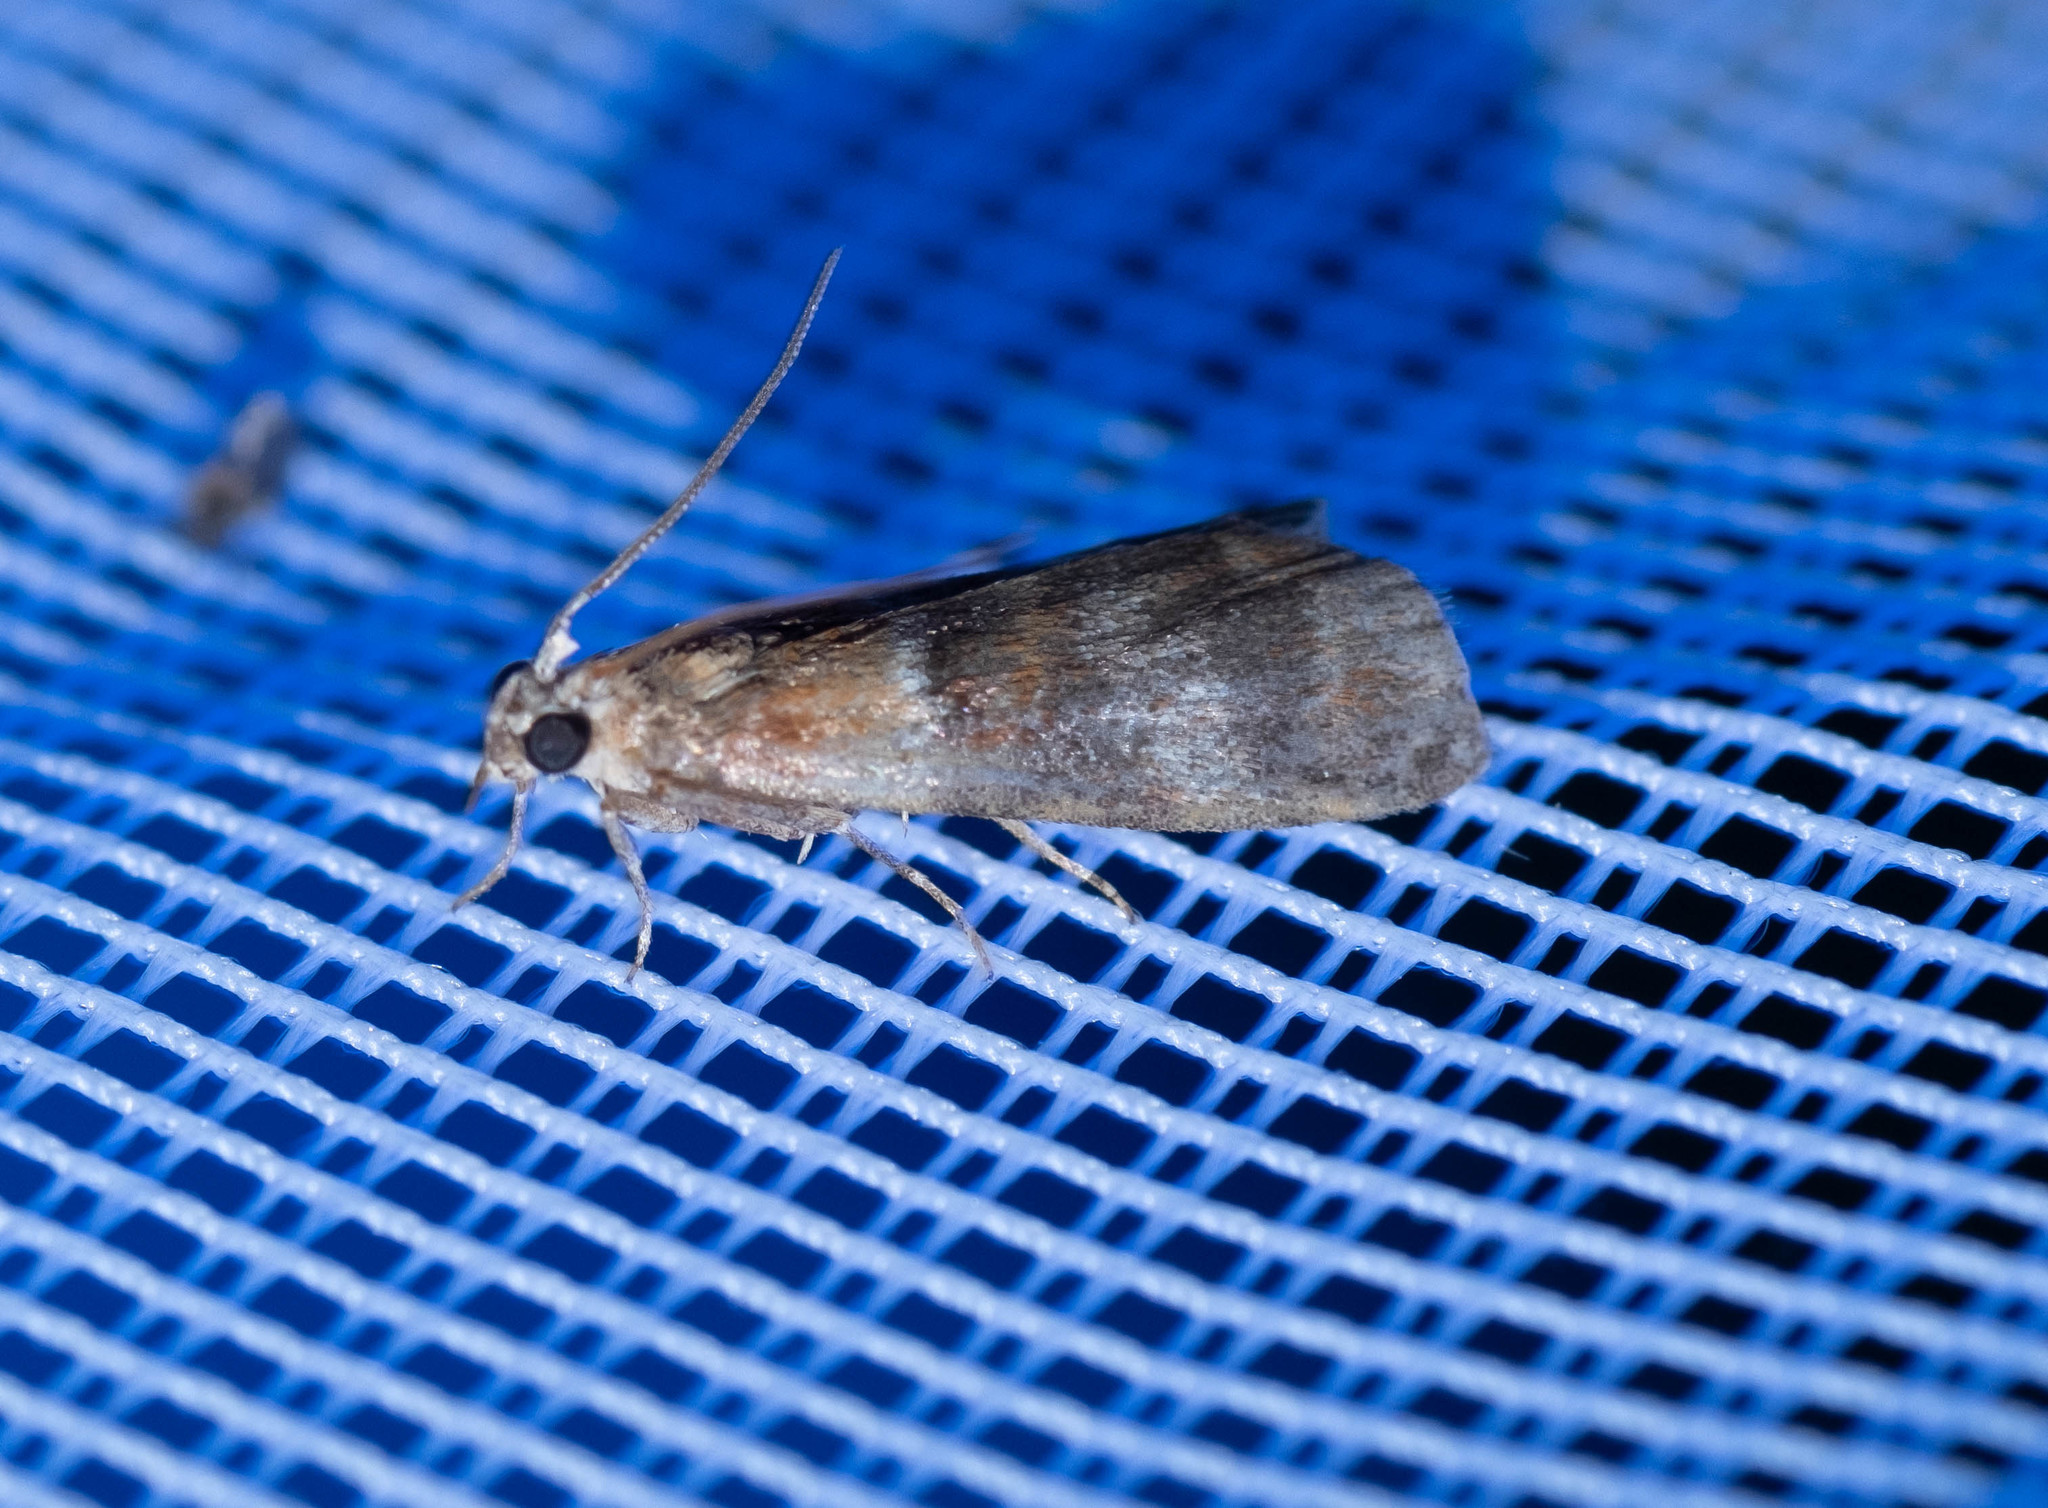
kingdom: Animalia
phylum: Arthropoda
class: Insecta
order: Lepidoptera
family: Pyralidae
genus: Acrobasis
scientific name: Acrobasis tumidana
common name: Scarce oak knot-horn
